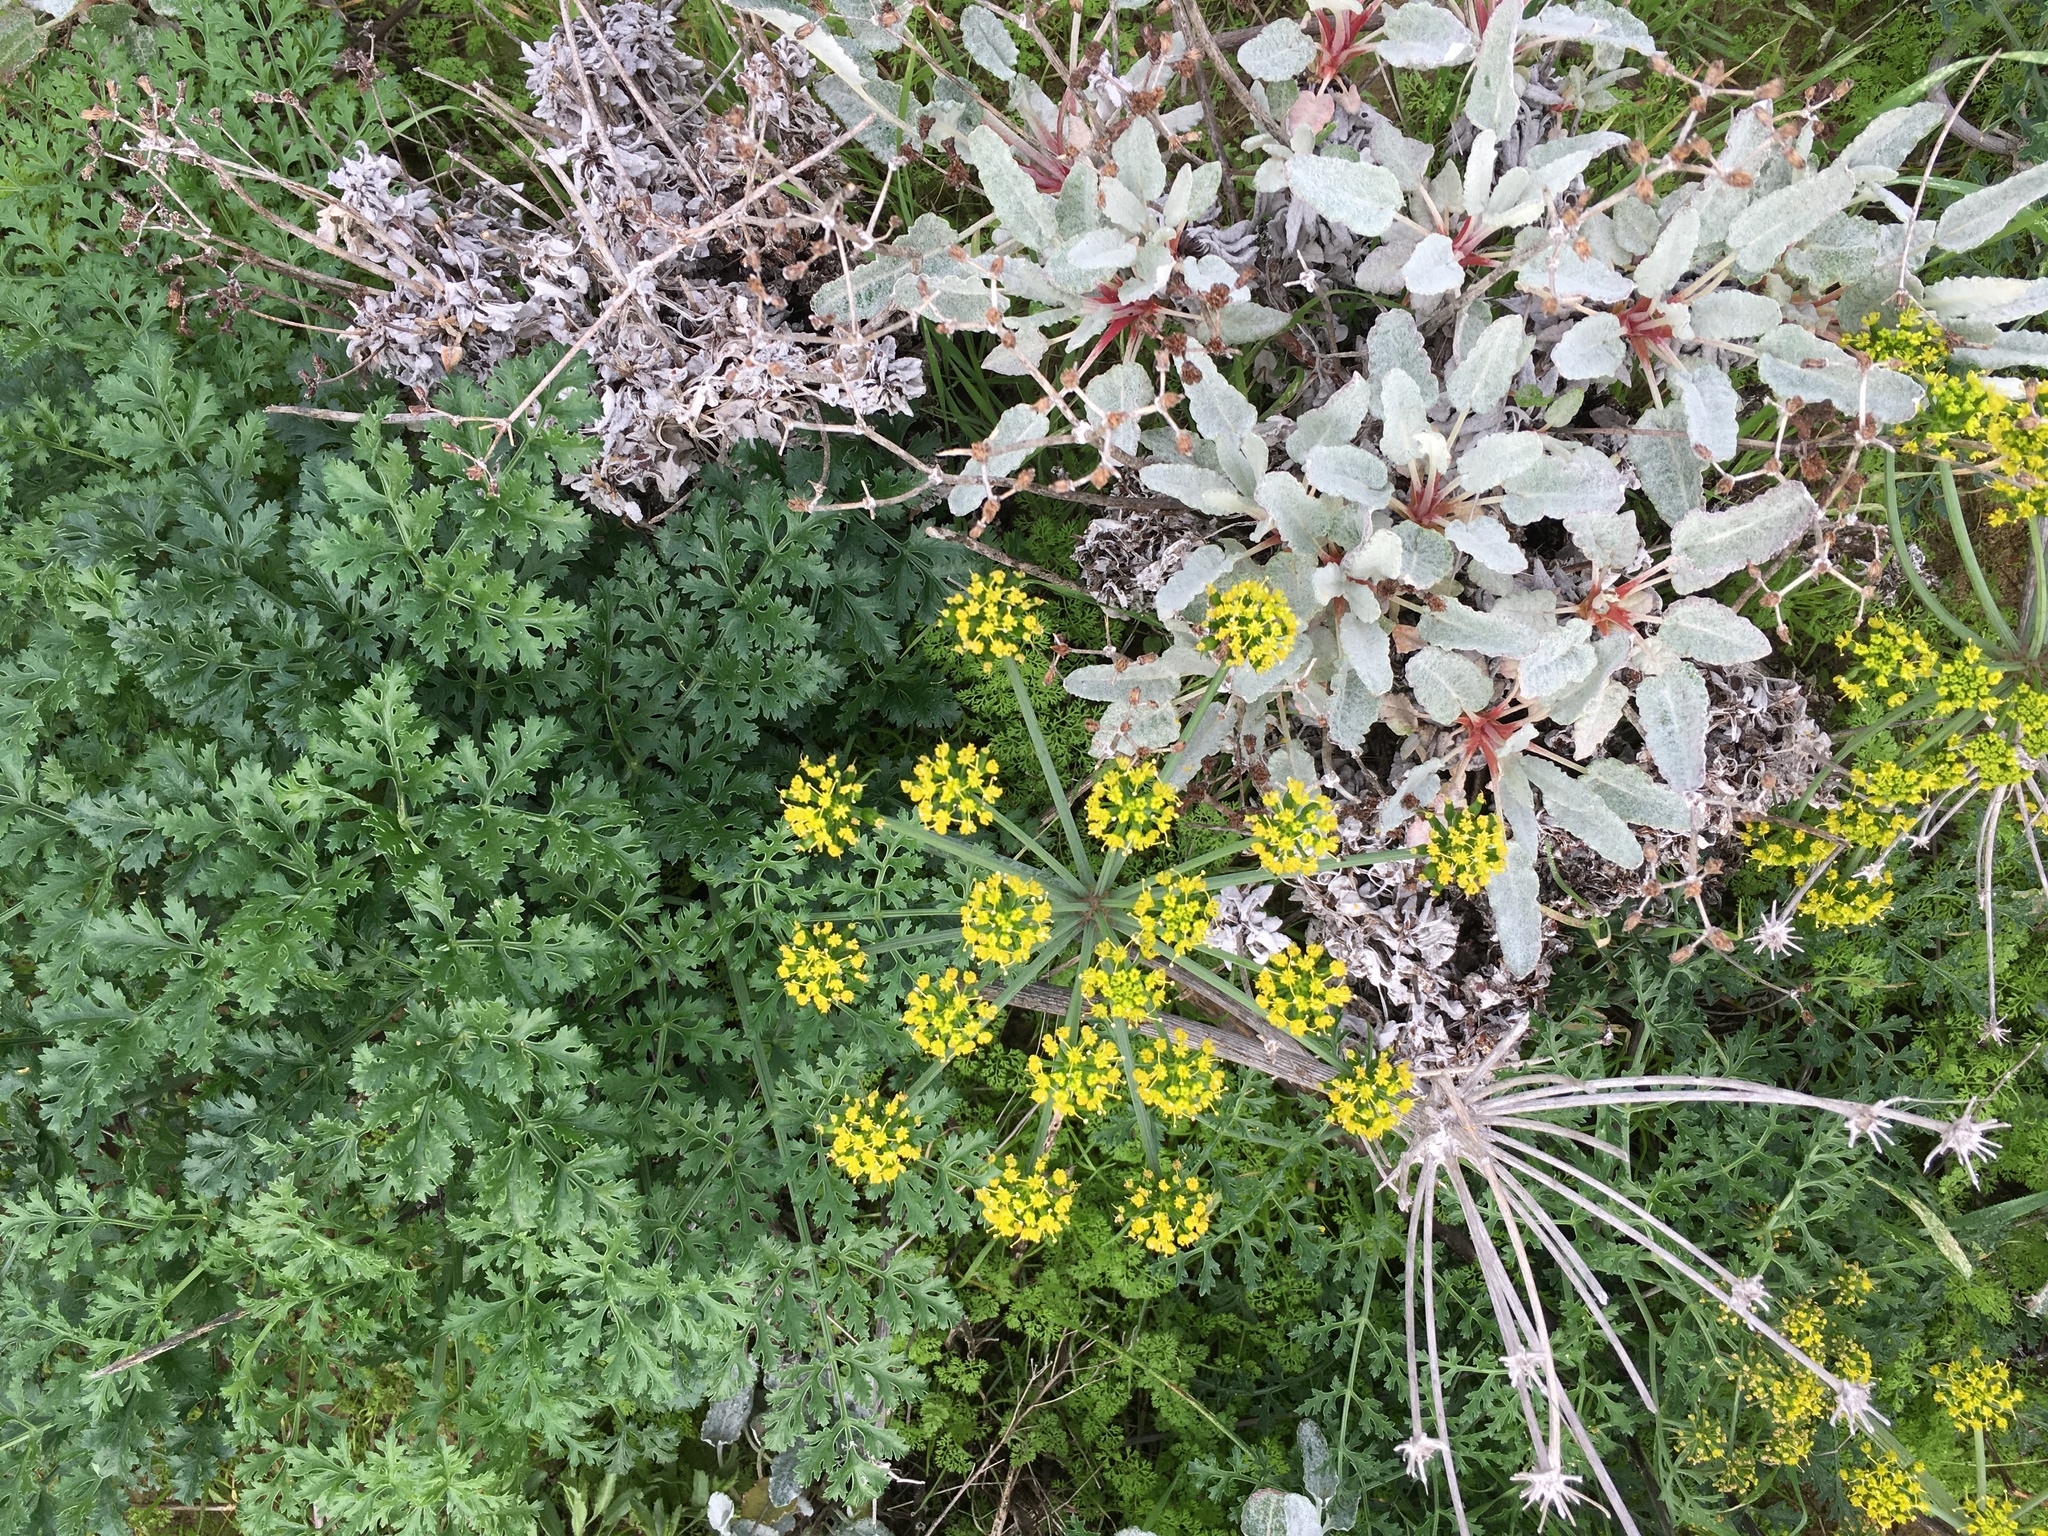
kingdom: Plantae
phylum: Tracheophyta
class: Magnoliopsida
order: Apiales
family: Apiaceae
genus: Lomatium
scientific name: Lomatium insulare
